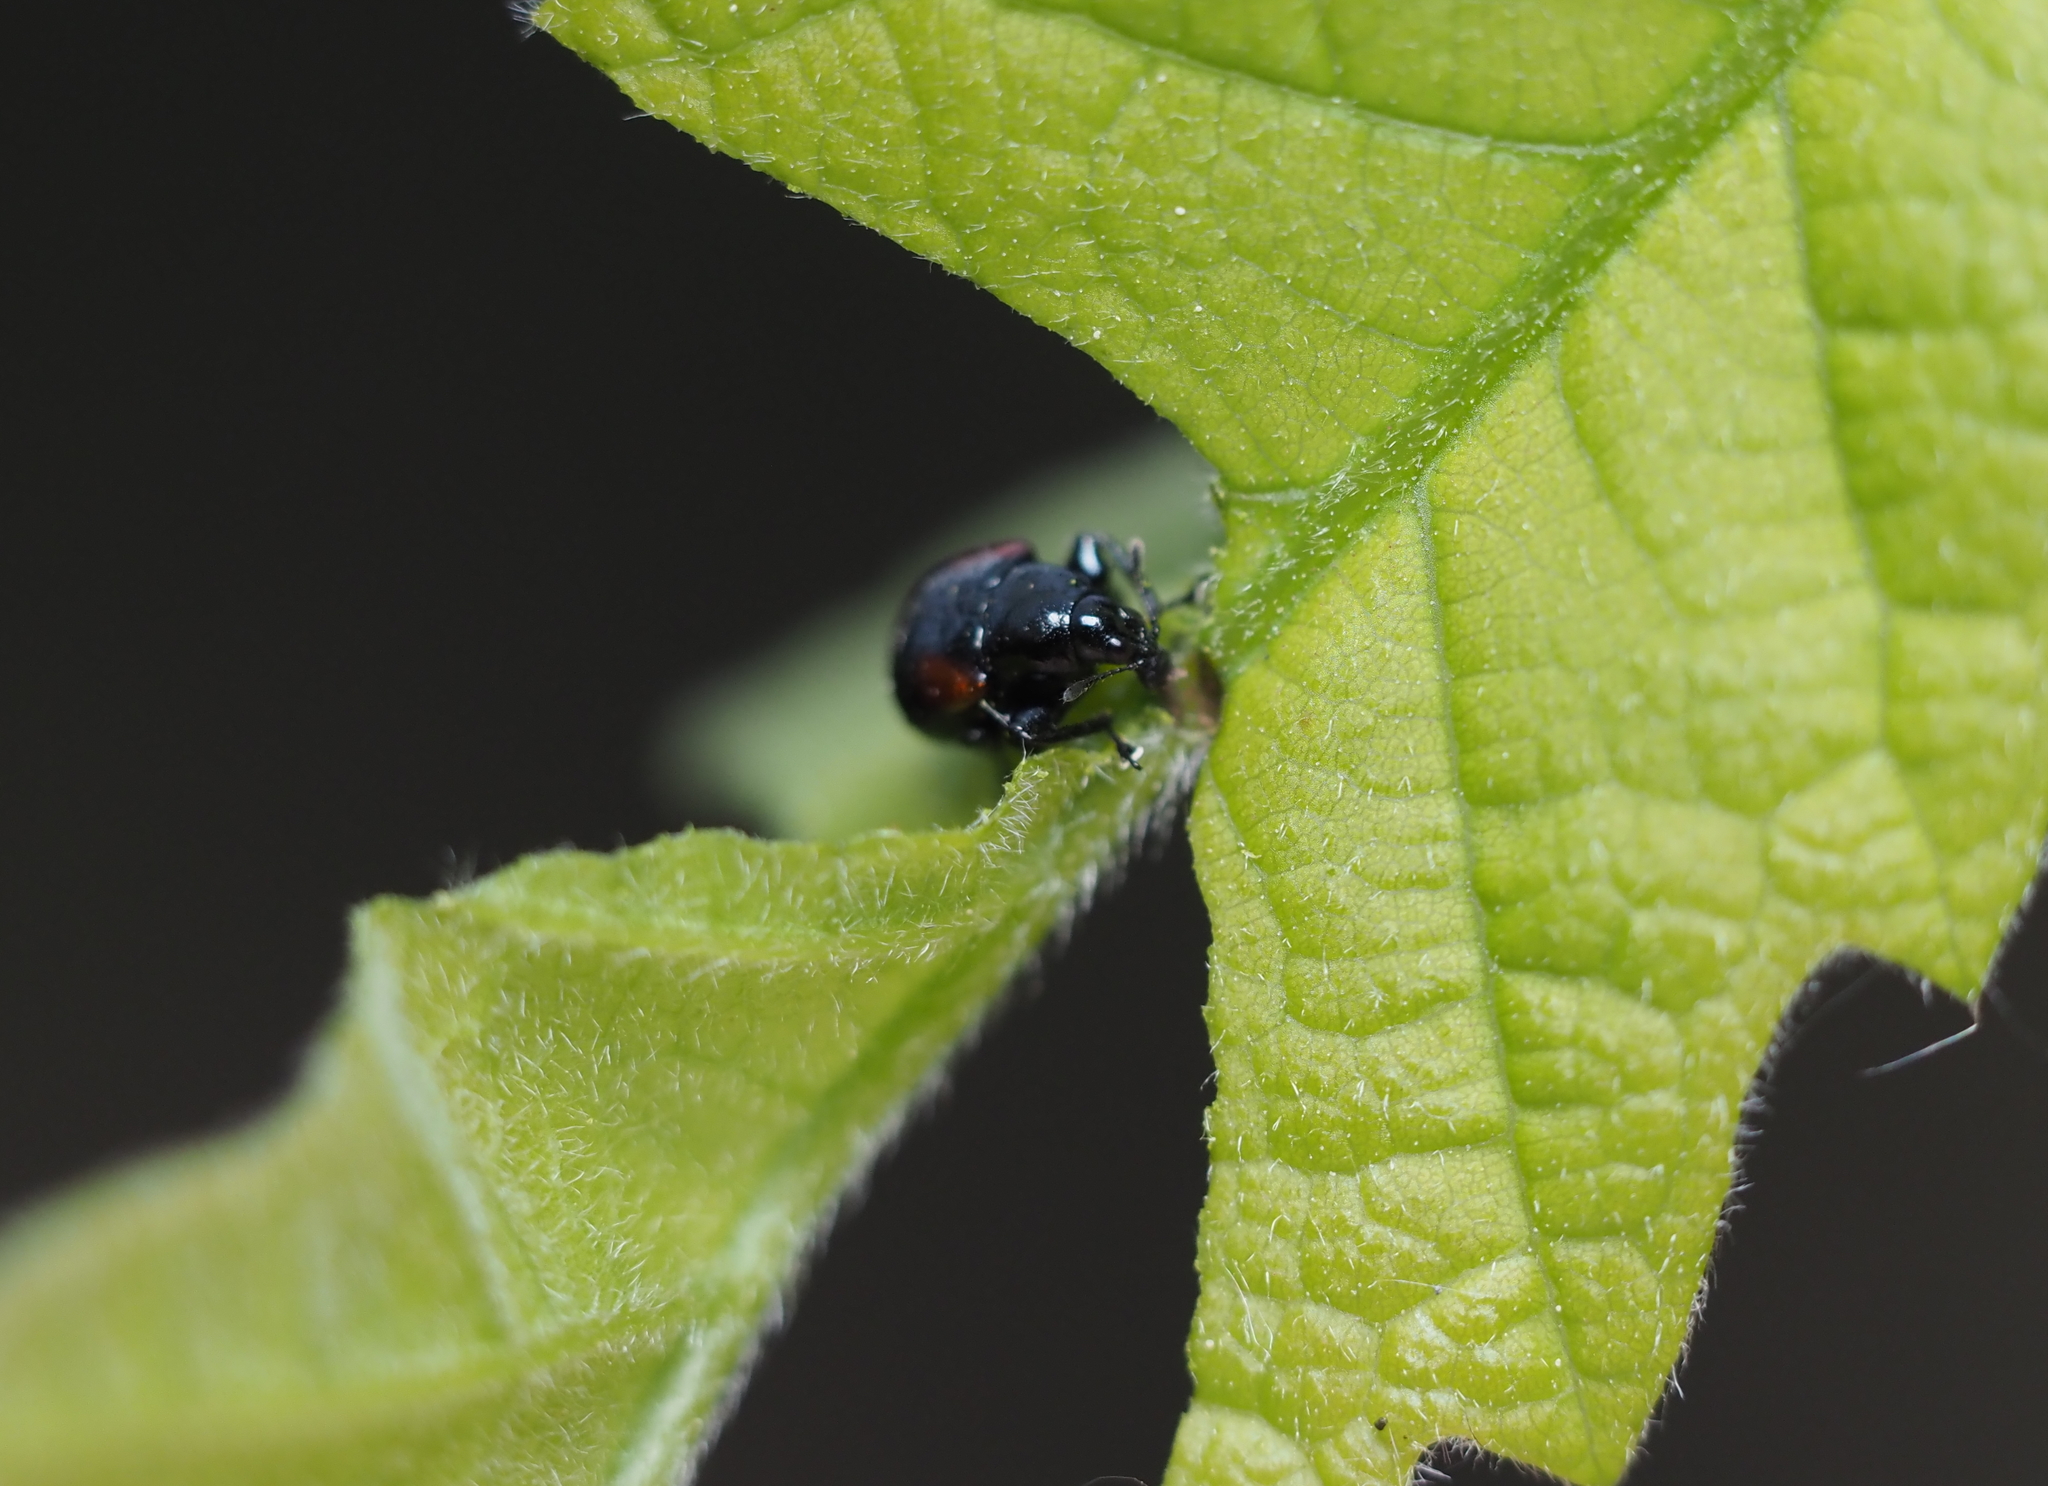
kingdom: Animalia
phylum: Arthropoda
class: Insecta
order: Coleoptera
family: Attelabidae
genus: Attelabus
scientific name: Attelabus bipustulatus
